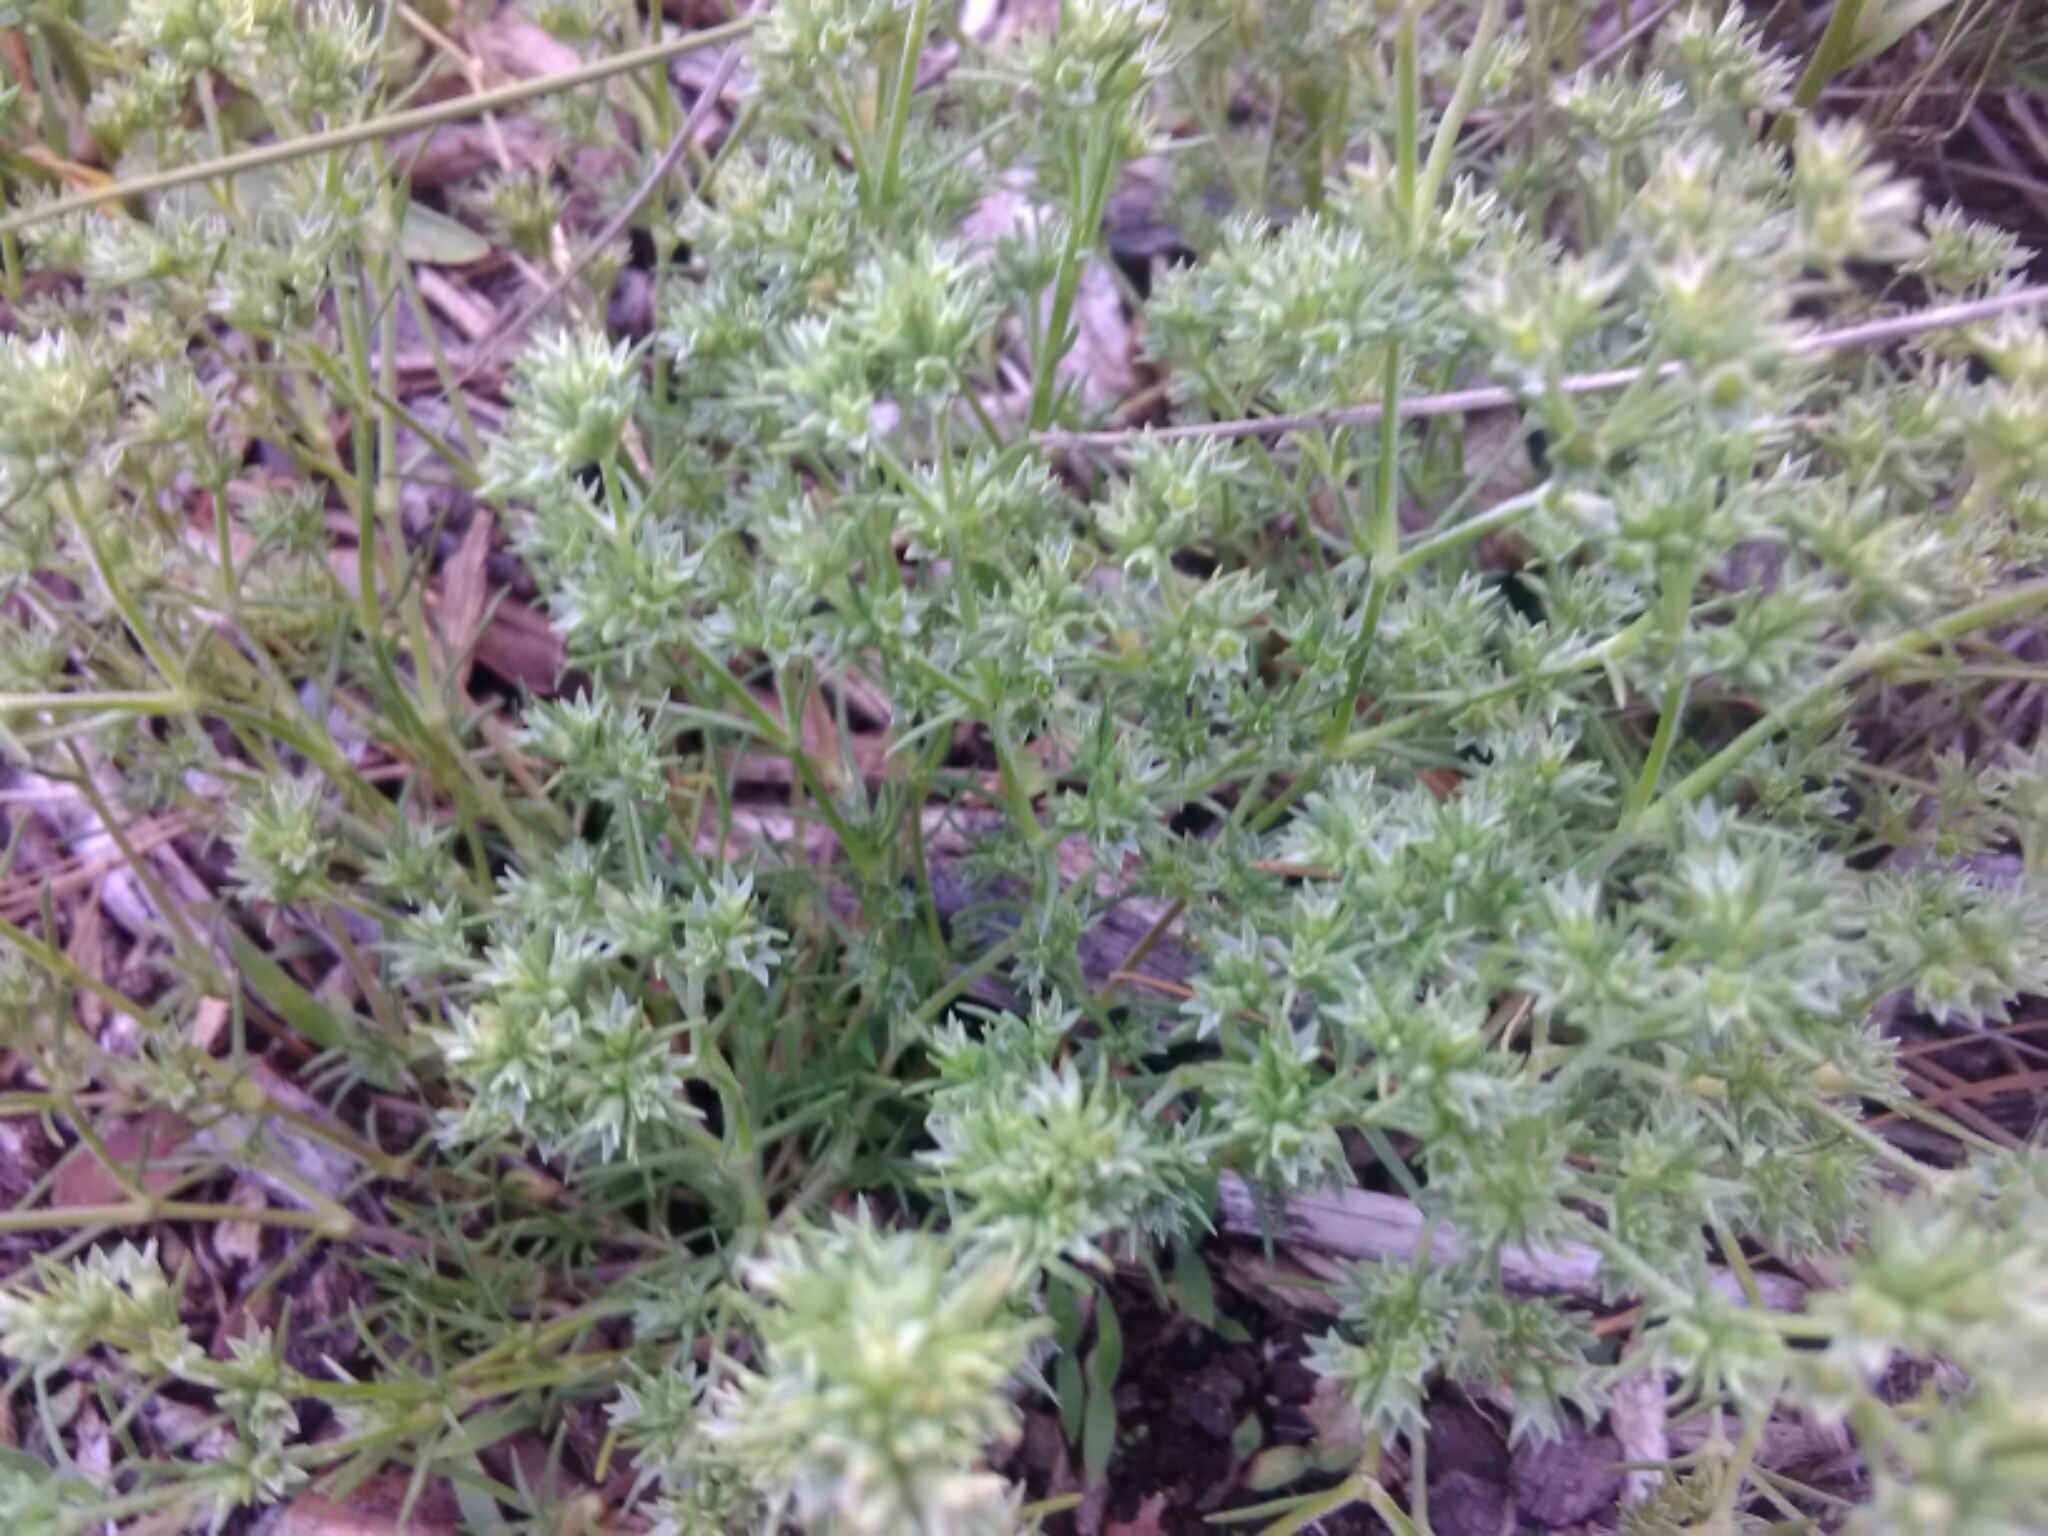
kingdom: Plantae
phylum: Tracheophyta
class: Magnoliopsida
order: Caryophyllales
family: Caryophyllaceae
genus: Scleranthus
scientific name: Scleranthus annuus
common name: Annual knawel
